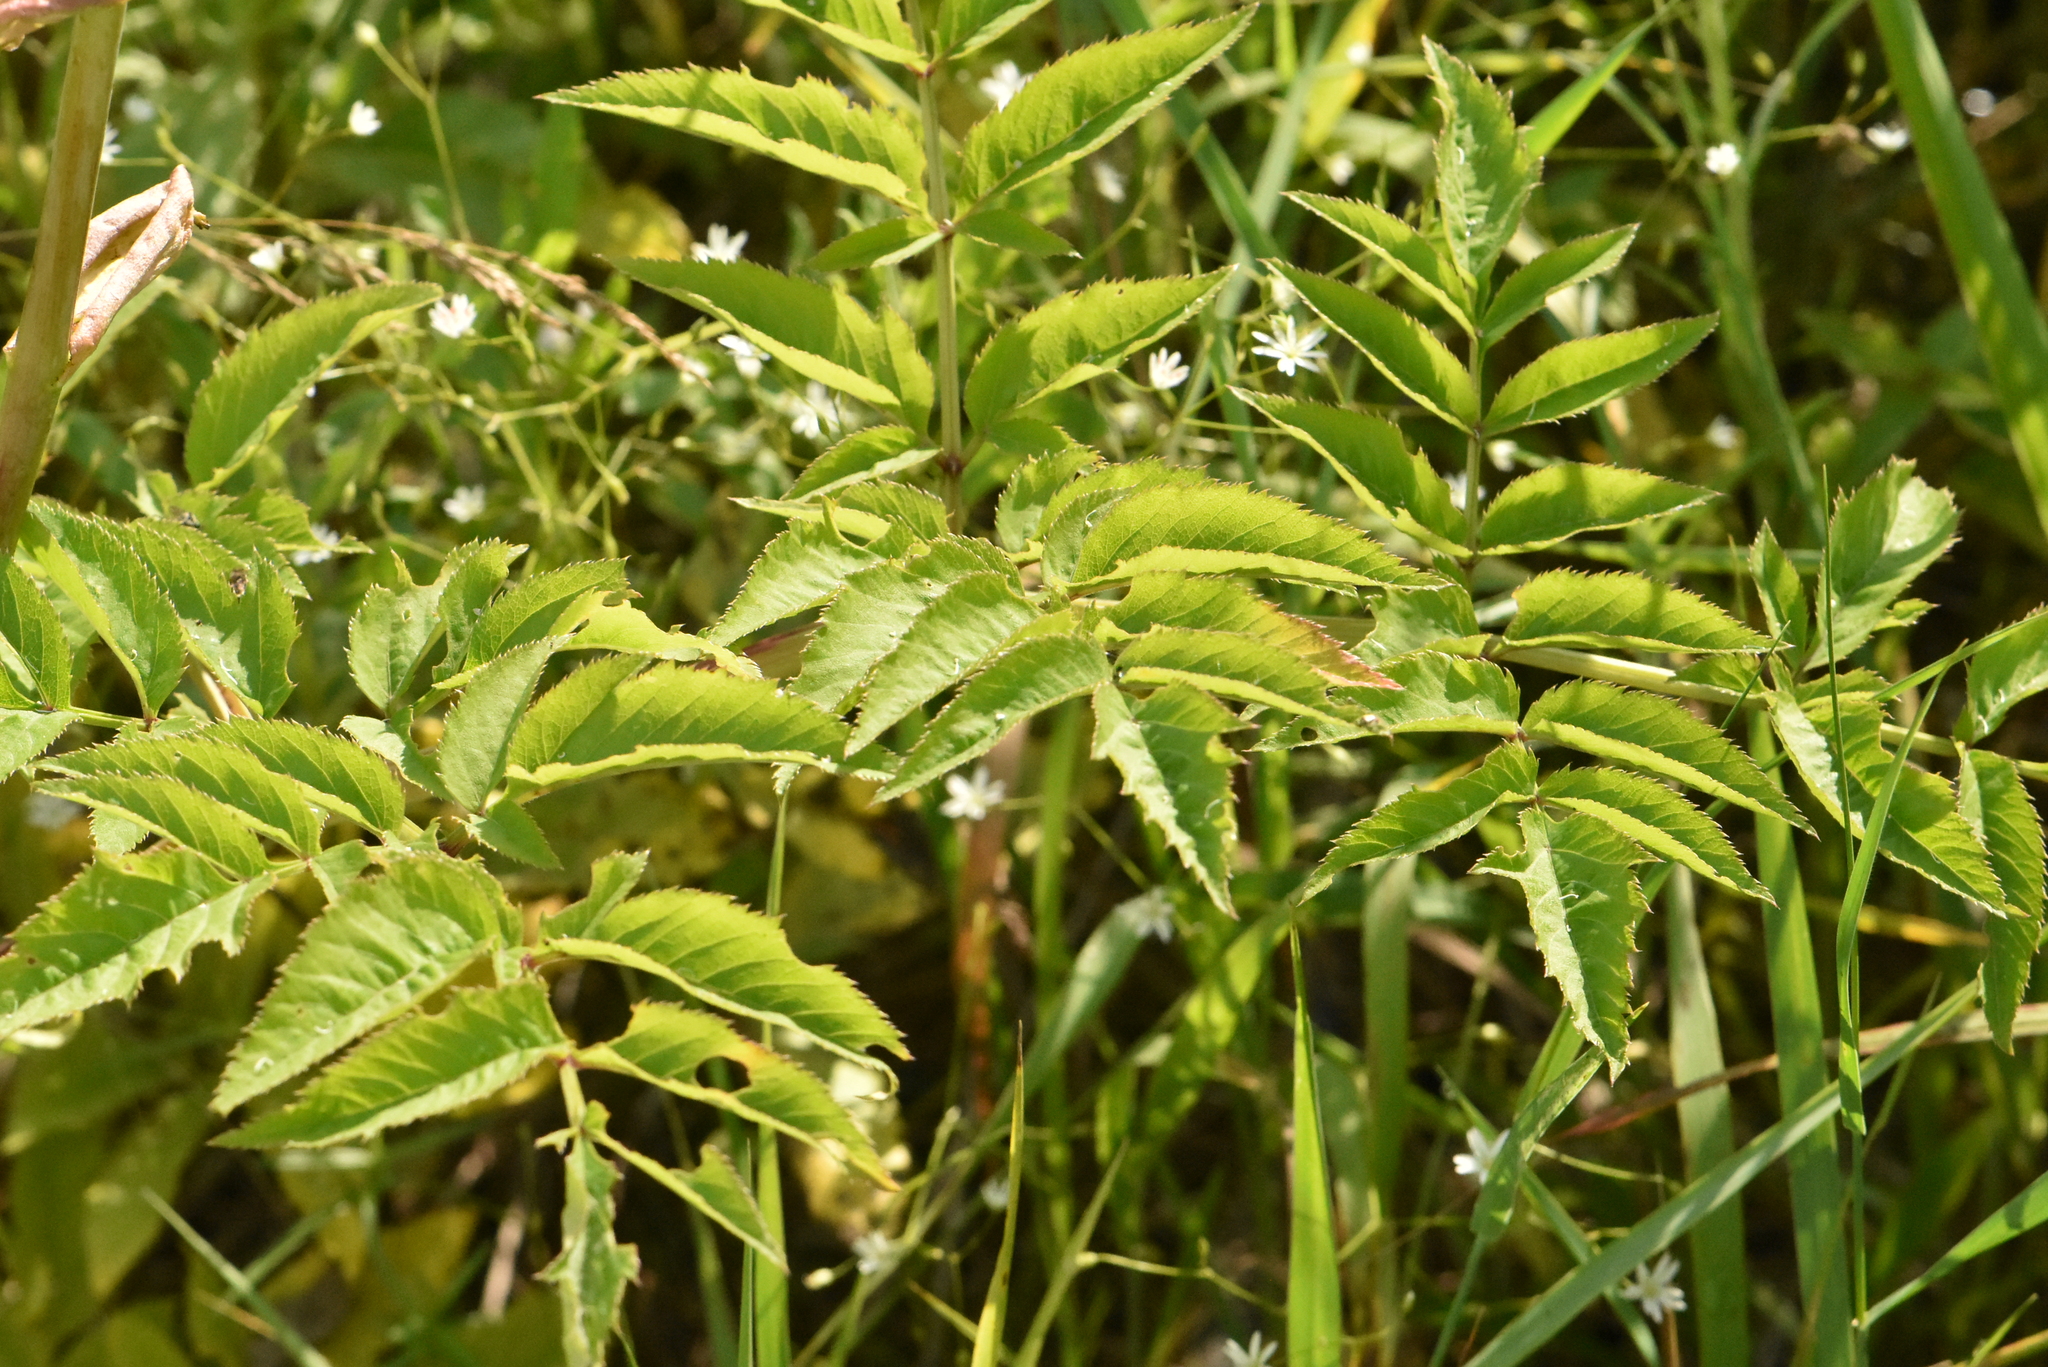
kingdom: Plantae
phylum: Tracheophyta
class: Magnoliopsida
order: Apiales
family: Apiaceae
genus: Angelica
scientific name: Angelica sylvestris
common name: Wild angelica
